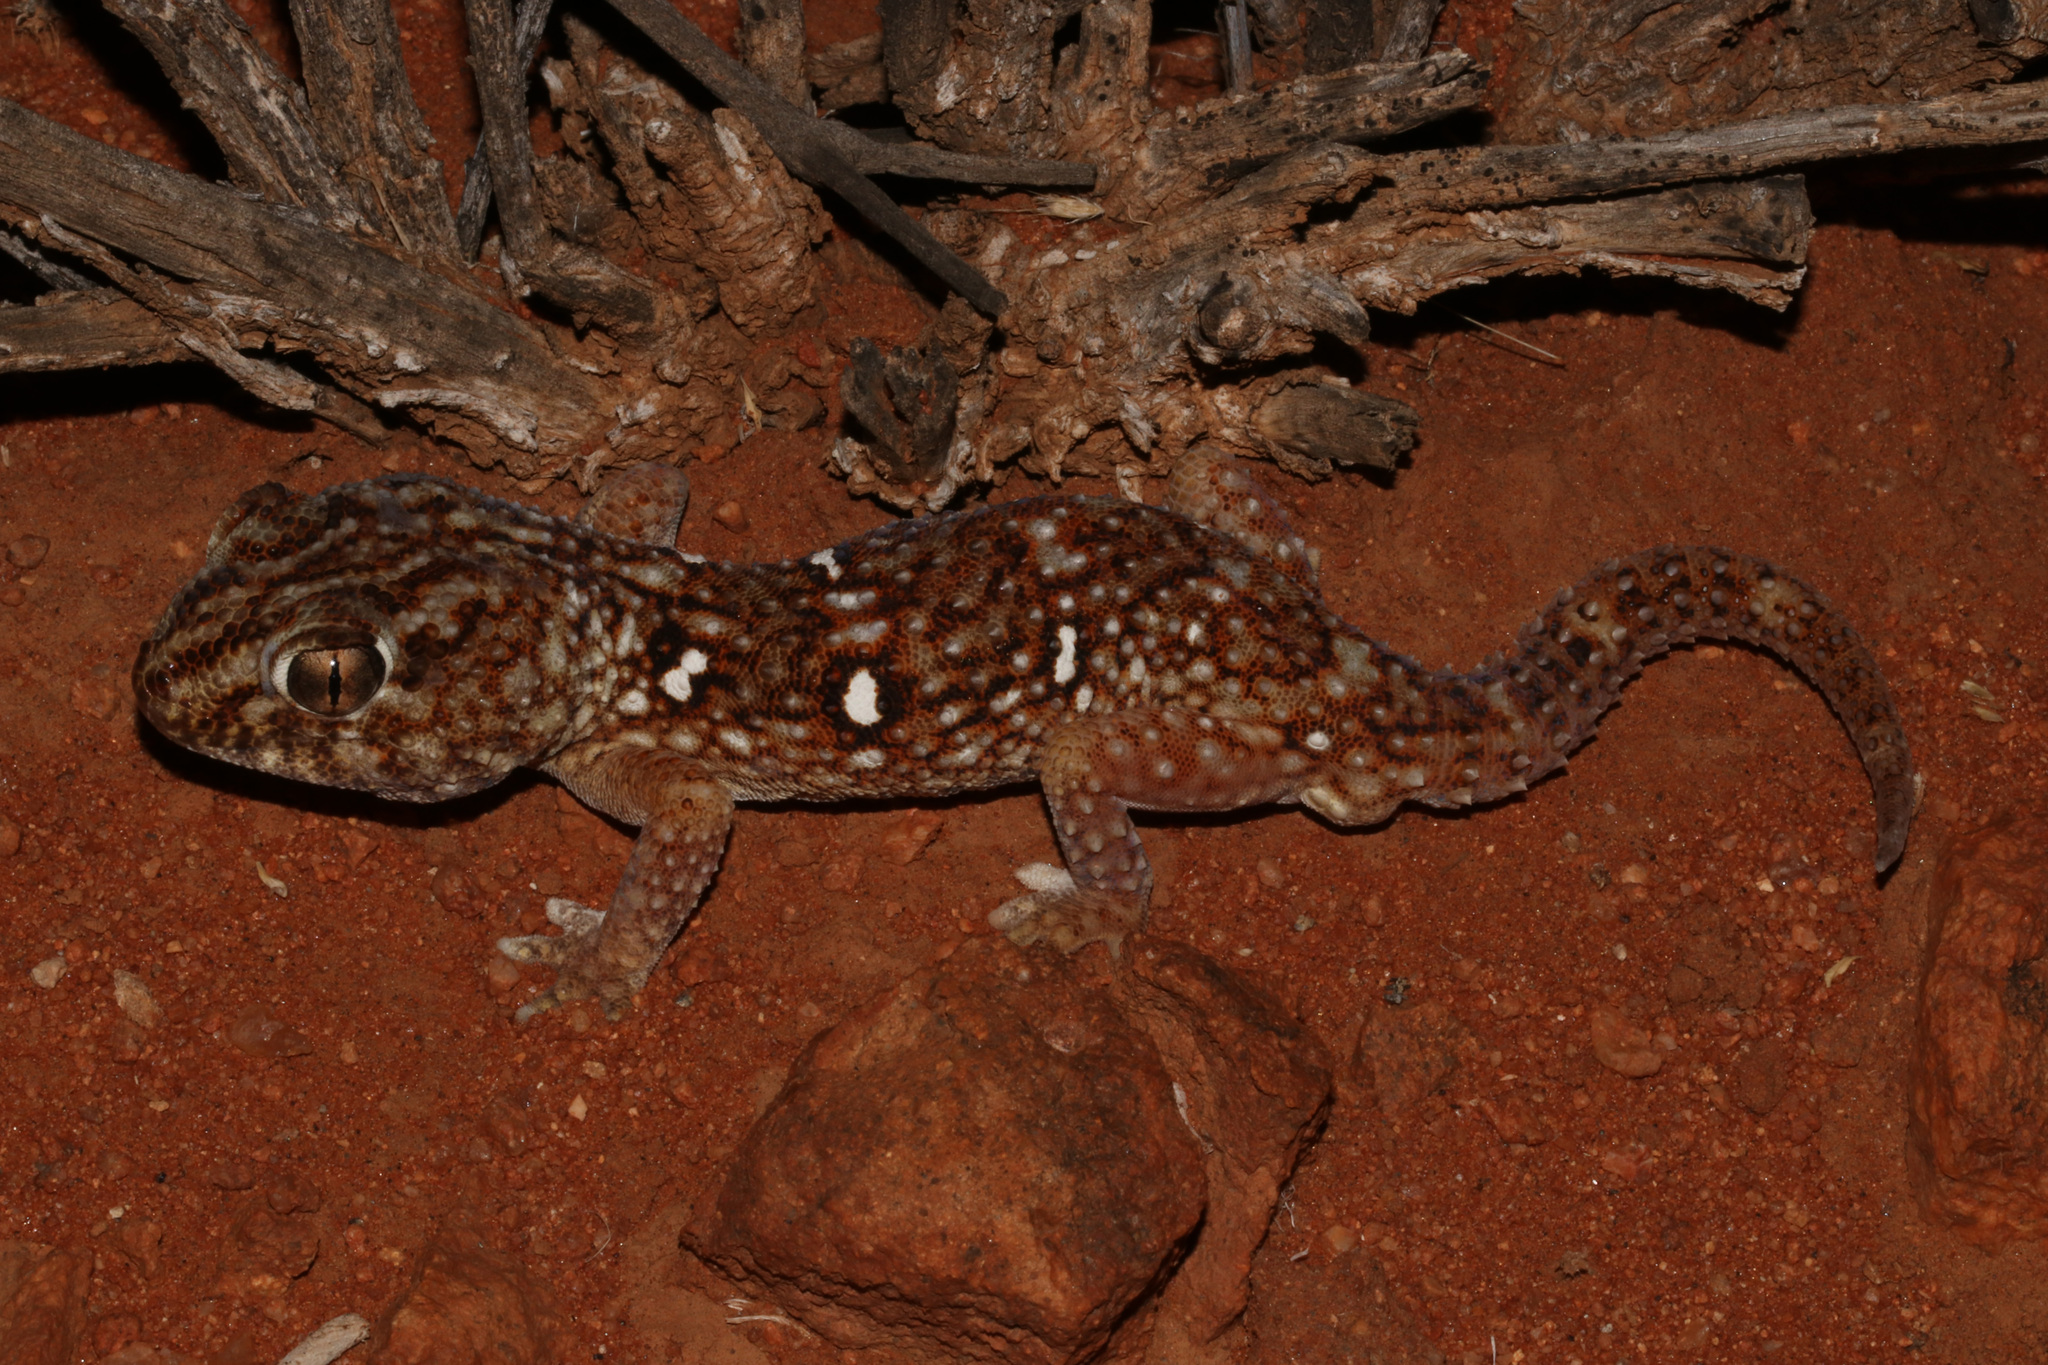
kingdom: Animalia
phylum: Chordata
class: Squamata
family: Gekkonidae
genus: Chondrodactylus
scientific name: Chondrodactylus angulifer
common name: Common giant ground gecko
